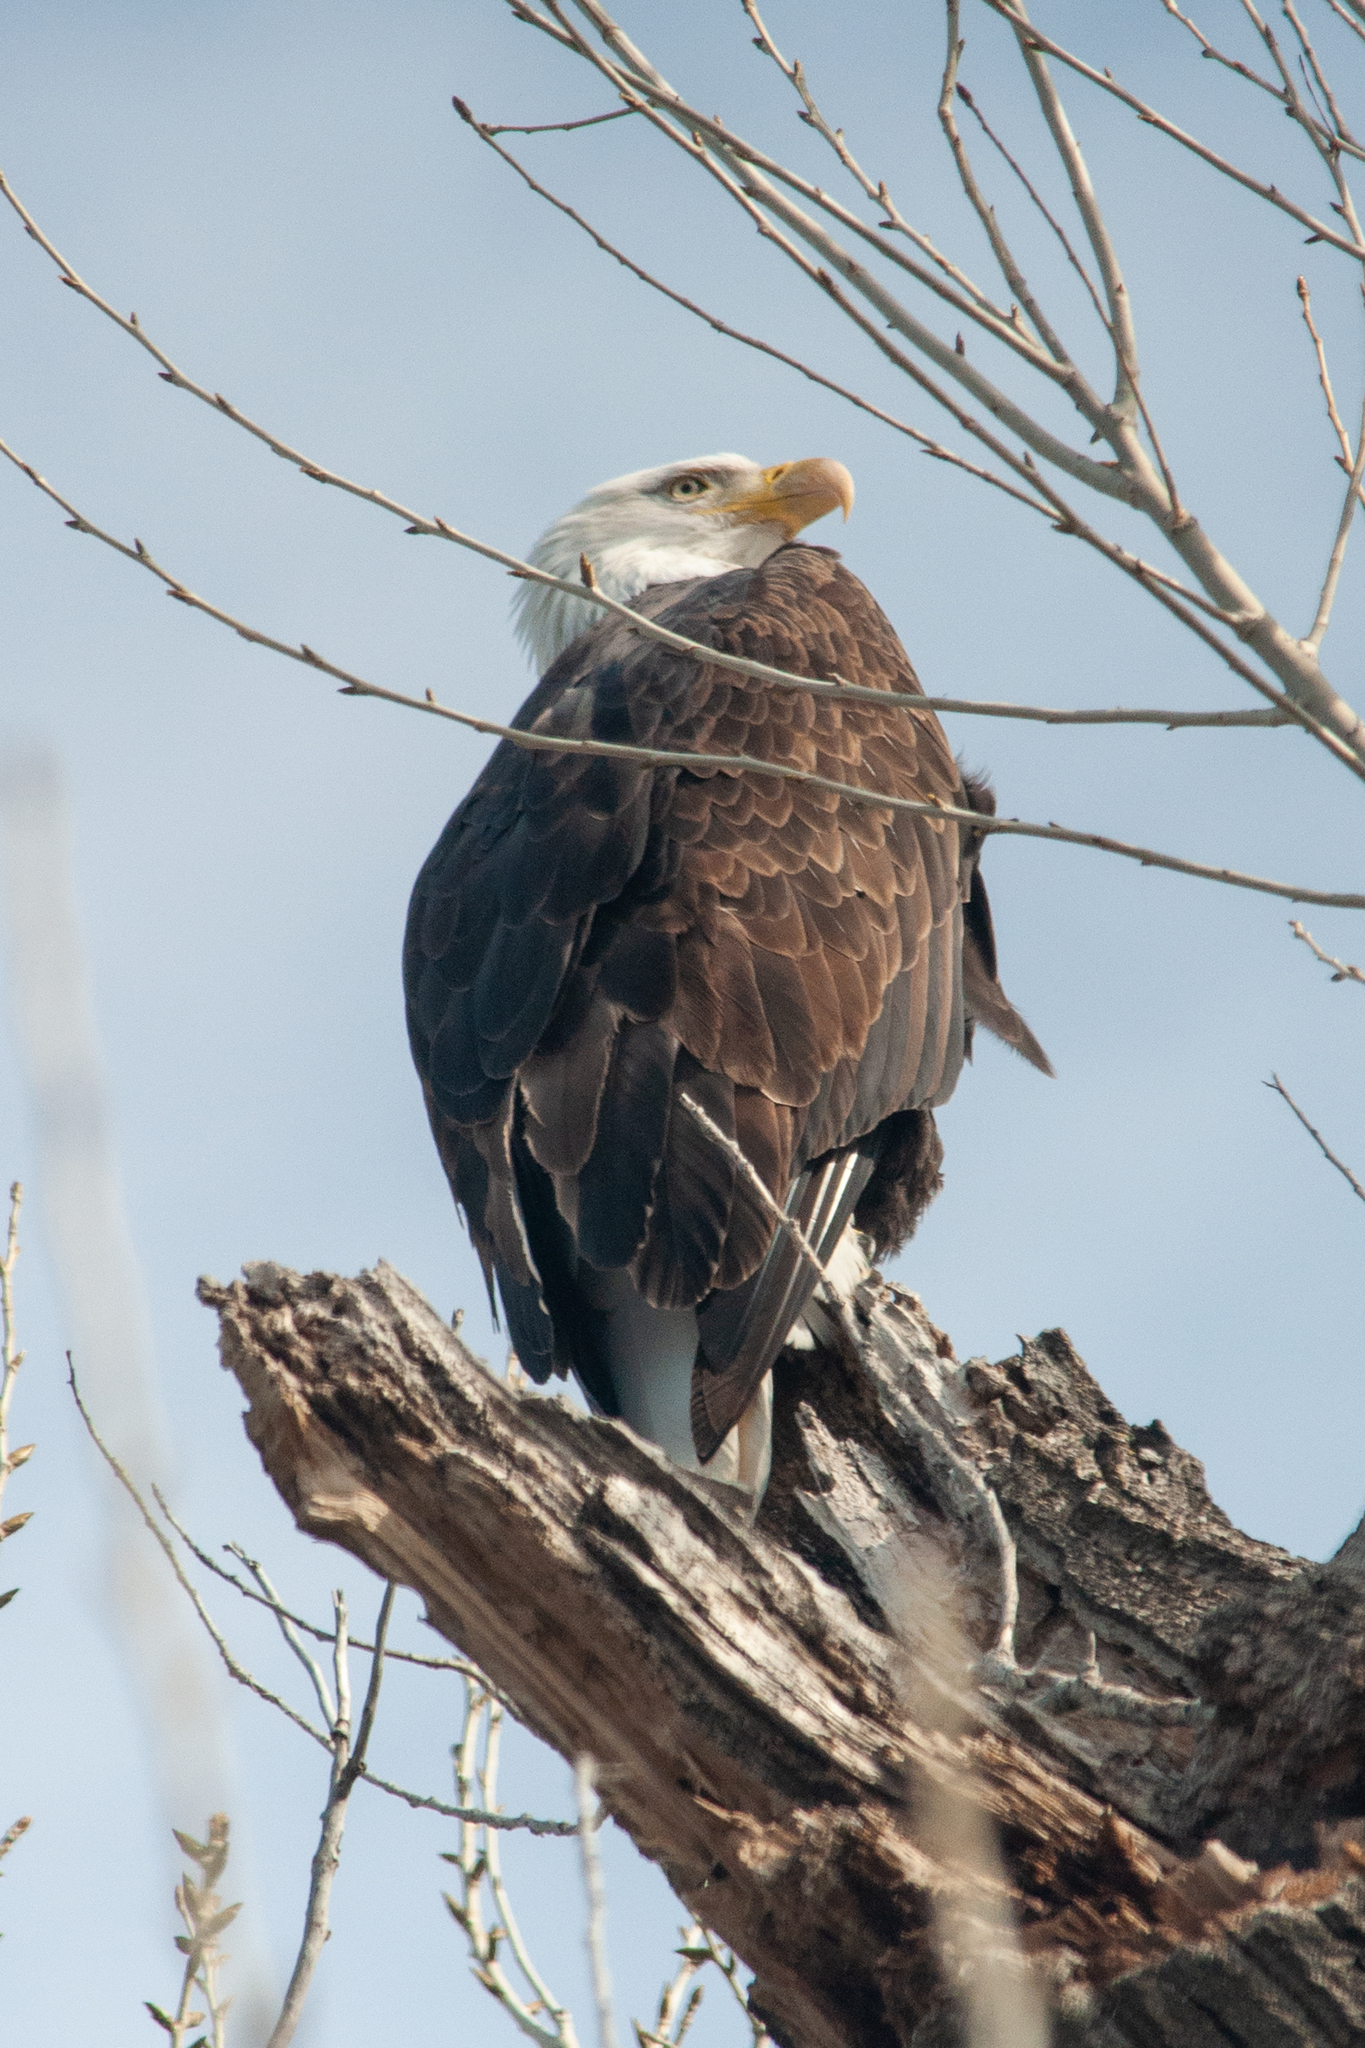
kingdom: Animalia
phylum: Chordata
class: Aves
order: Accipitriformes
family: Accipitridae
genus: Haliaeetus
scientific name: Haliaeetus leucocephalus
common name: Bald eagle
